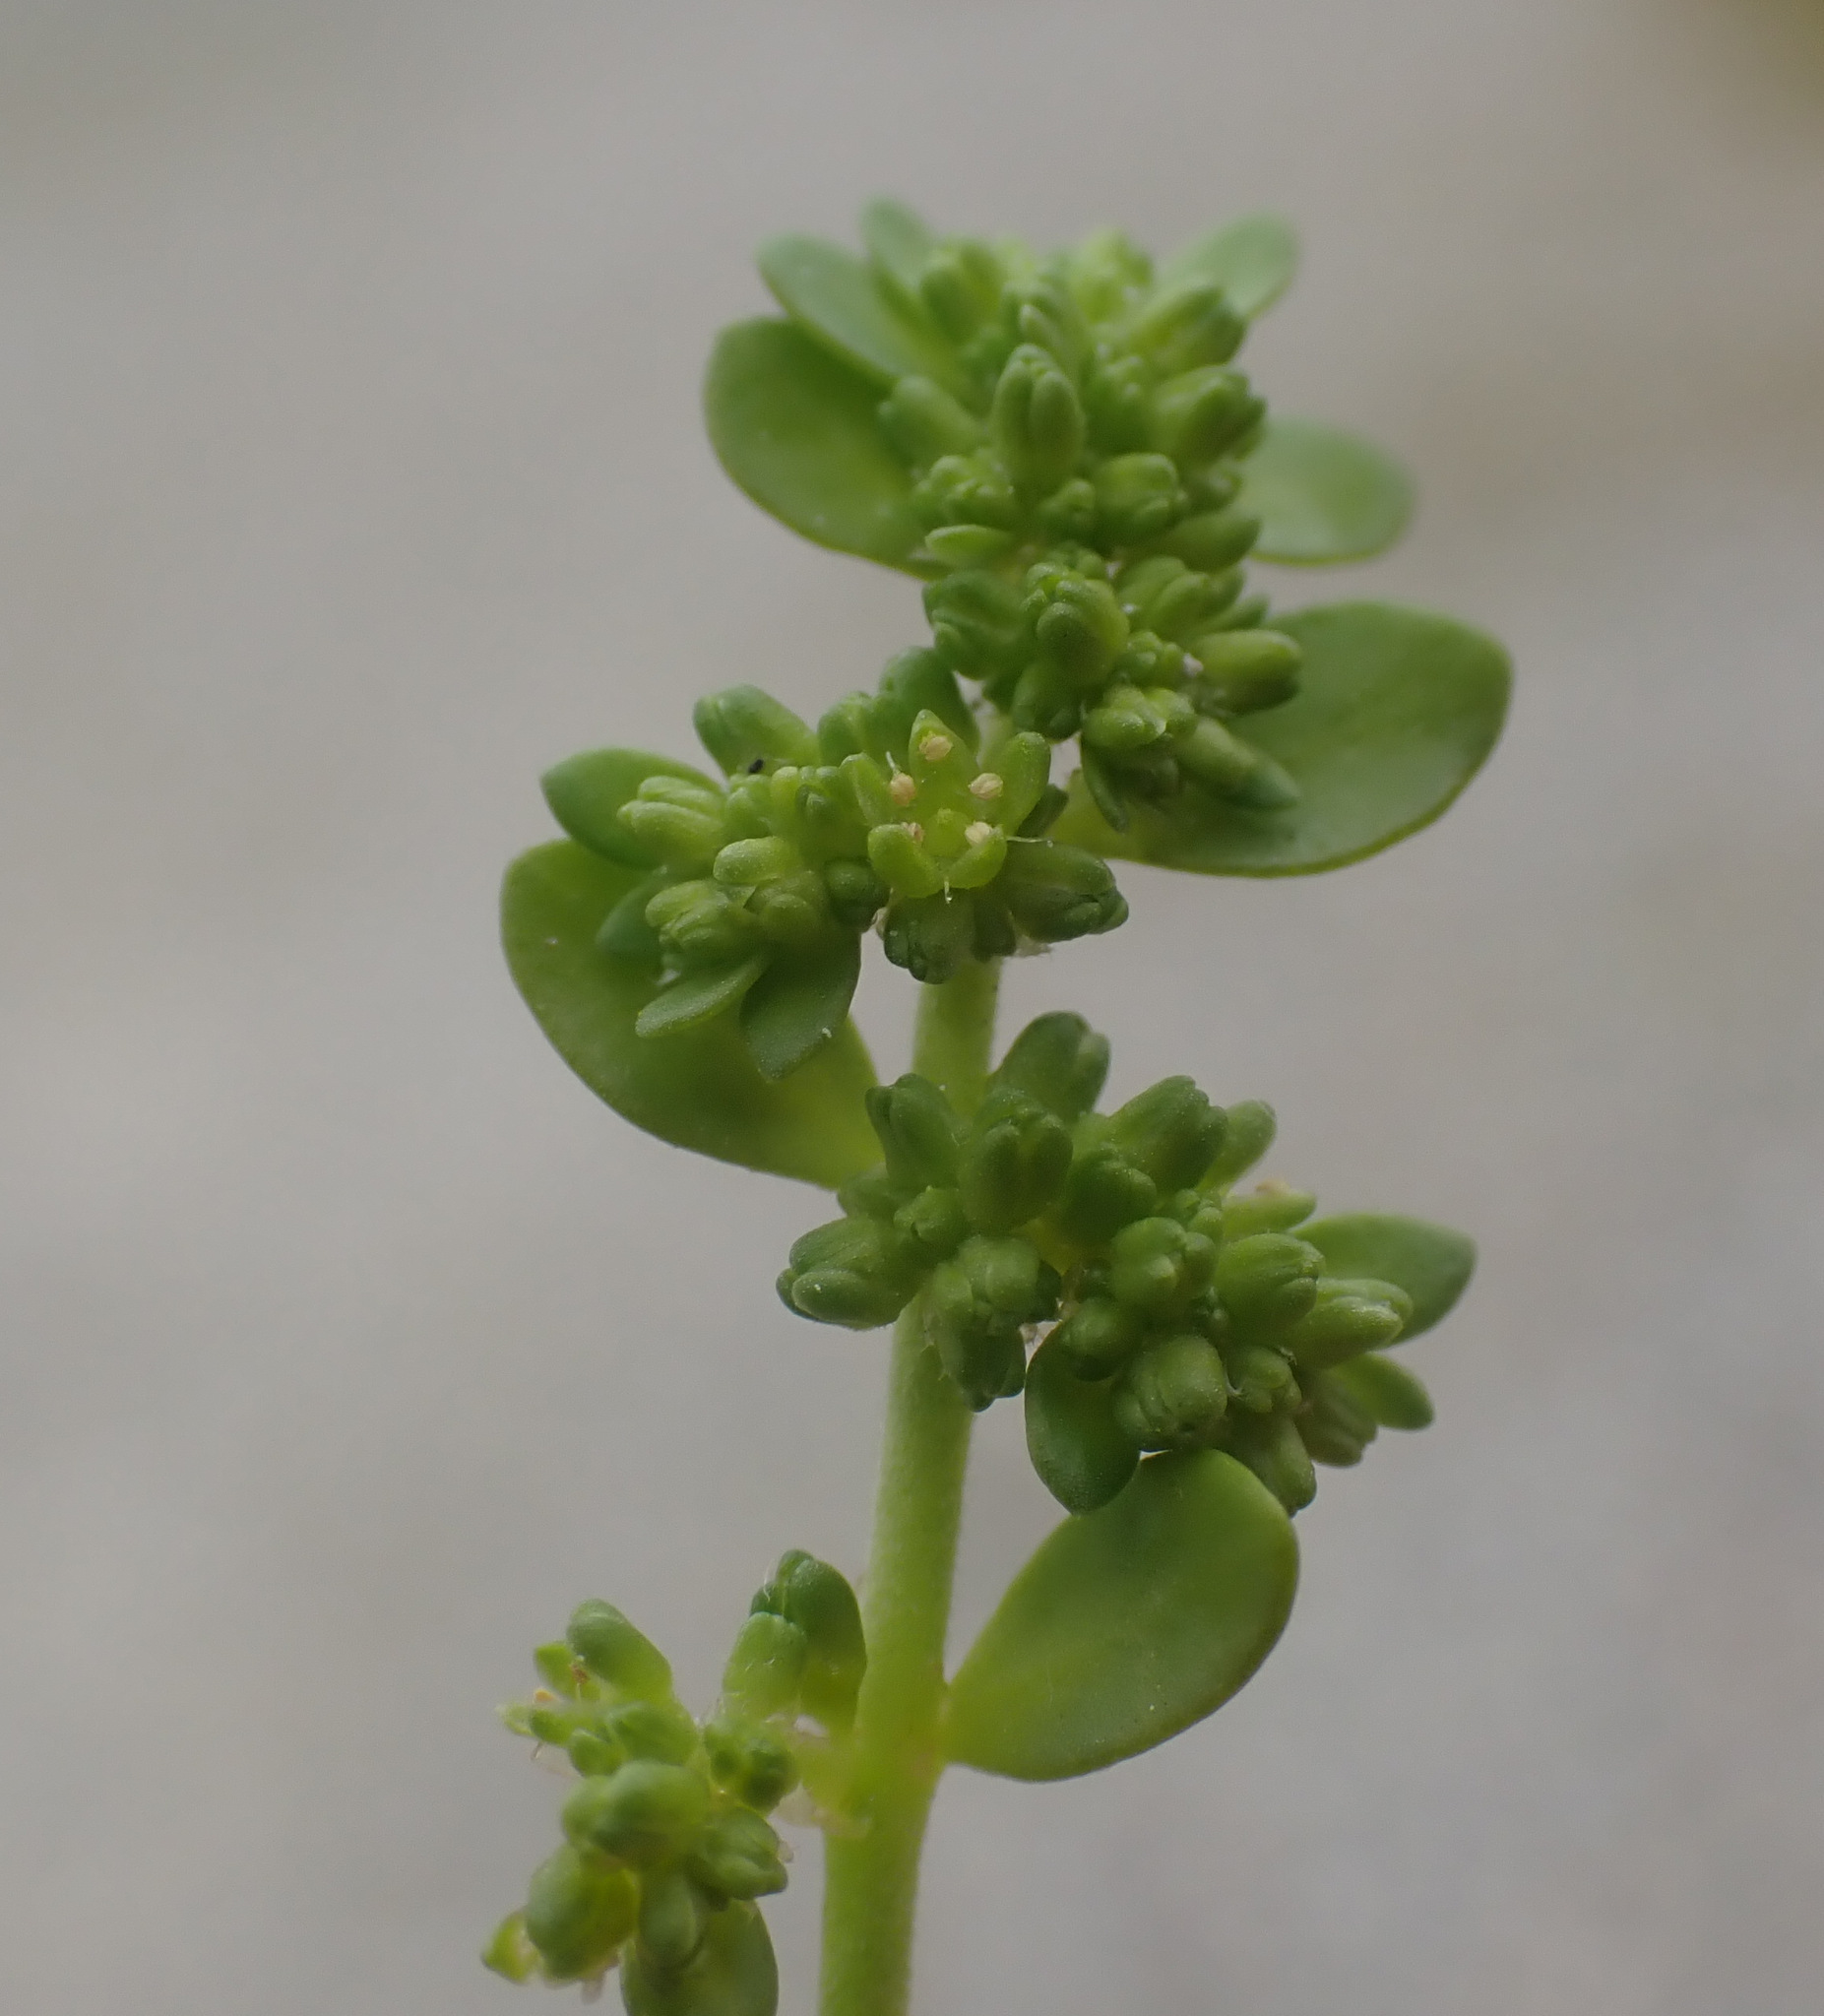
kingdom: Plantae
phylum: Tracheophyta
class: Magnoliopsida
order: Caryophyllales
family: Caryophyllaceae
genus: Herniaria
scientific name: Herniaria glabra
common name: Smooth rupturewort
